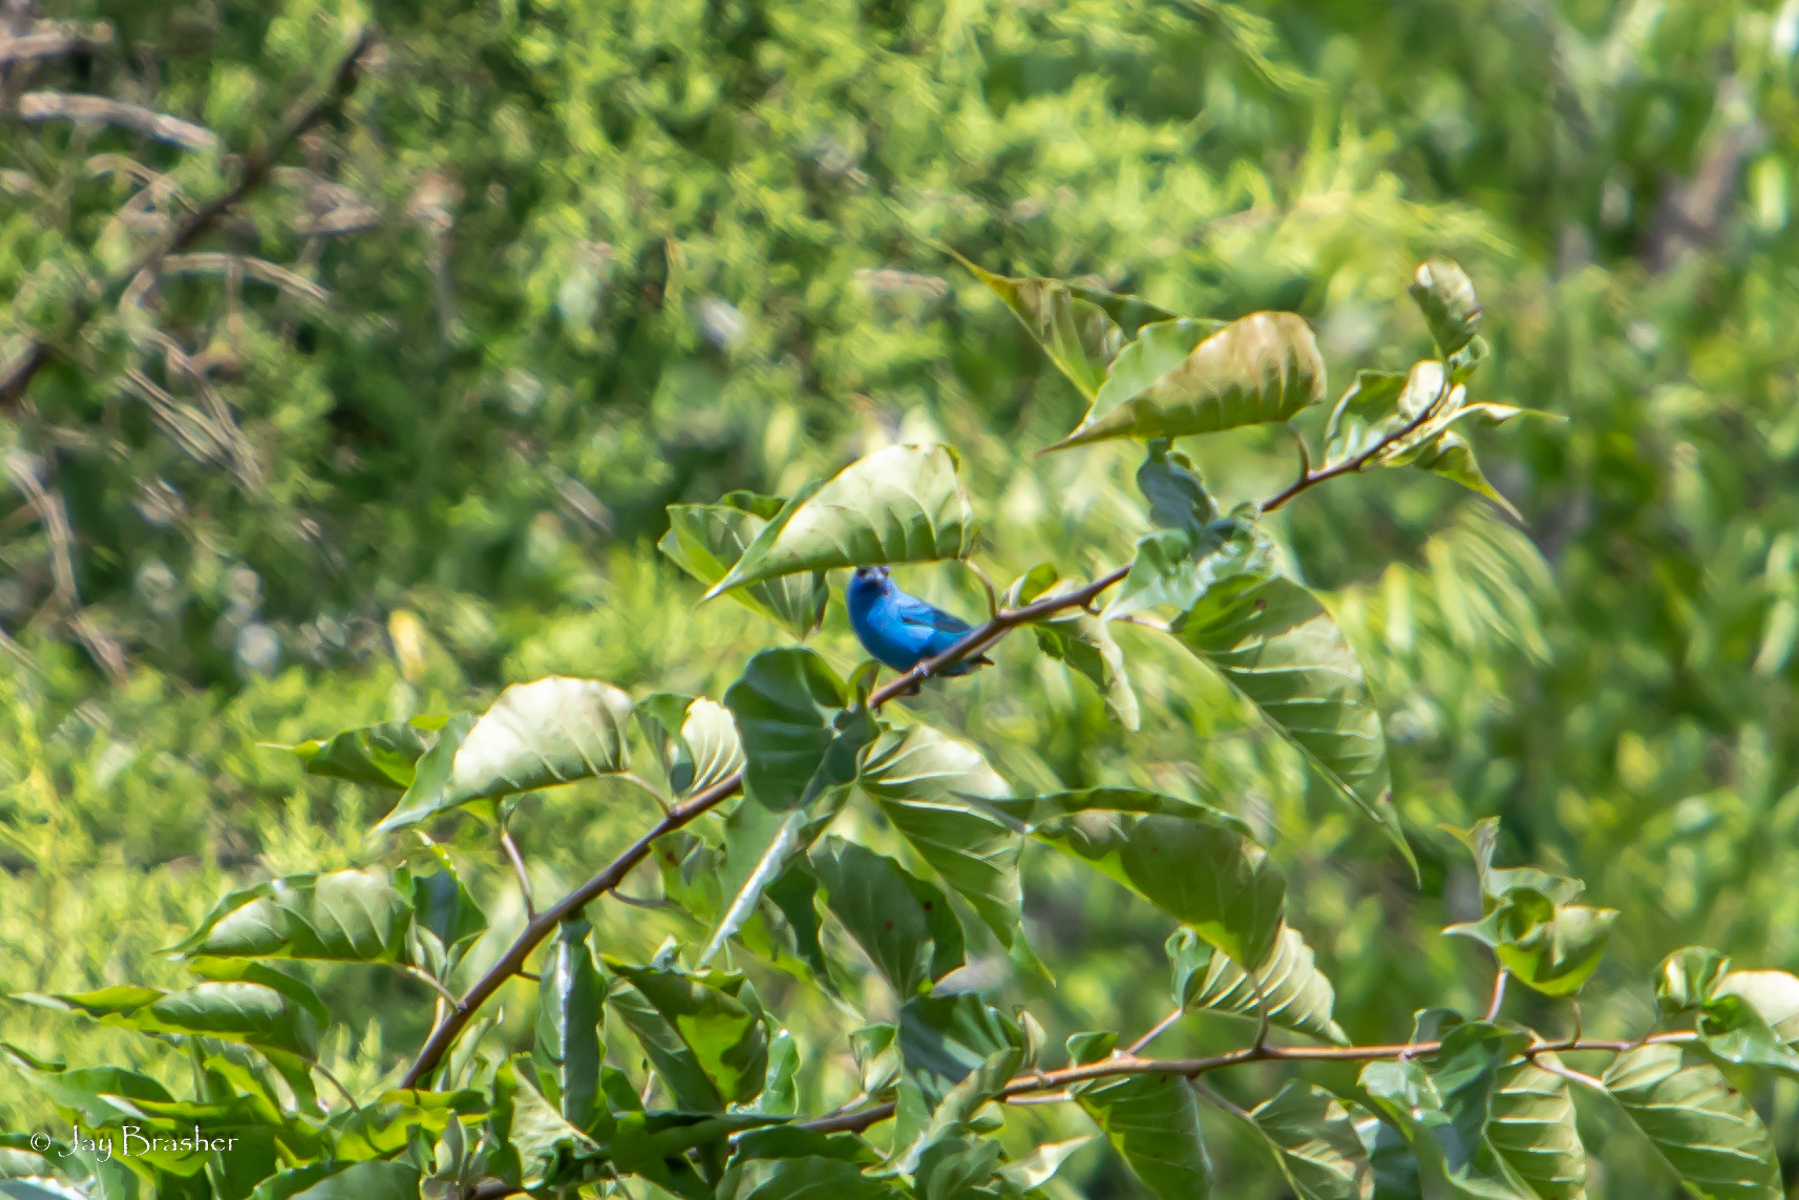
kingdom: Animalia
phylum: Chordata
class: Aves
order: Passeriformes
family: Cardinalidae
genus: Passerina
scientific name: Passerina cyanea
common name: Indigo bunting
